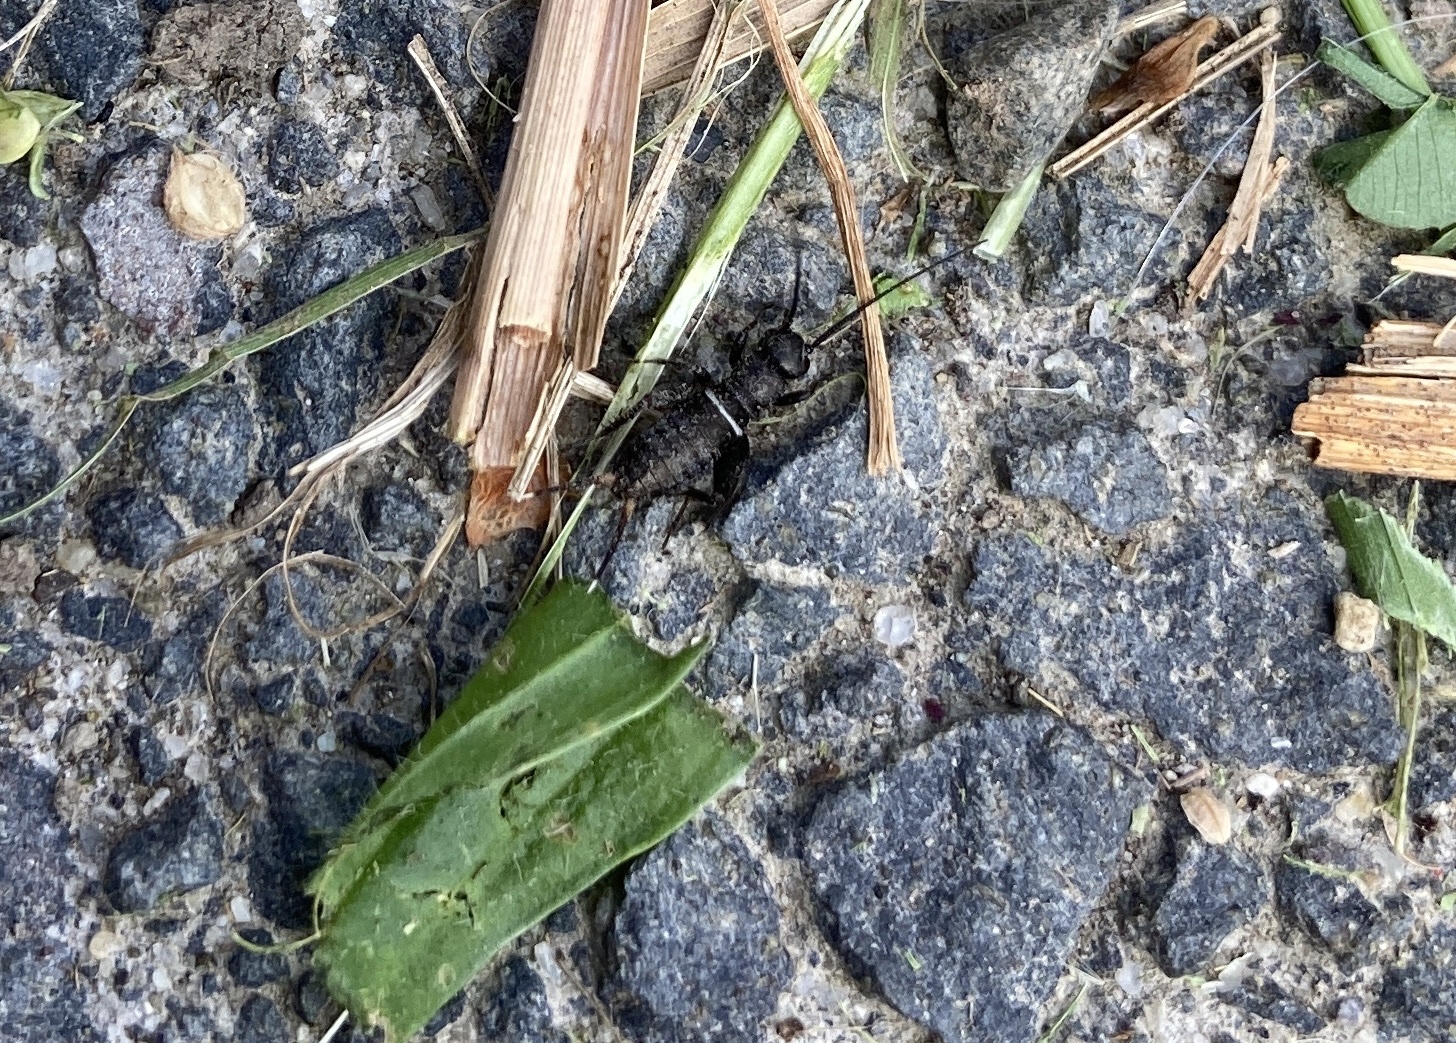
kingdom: Animalia
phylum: Arthropoda
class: Insecta
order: Orthoptera
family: Gryllidae
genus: Teleogryllus
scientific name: Teleogryllus commodus
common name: Black field cricket
